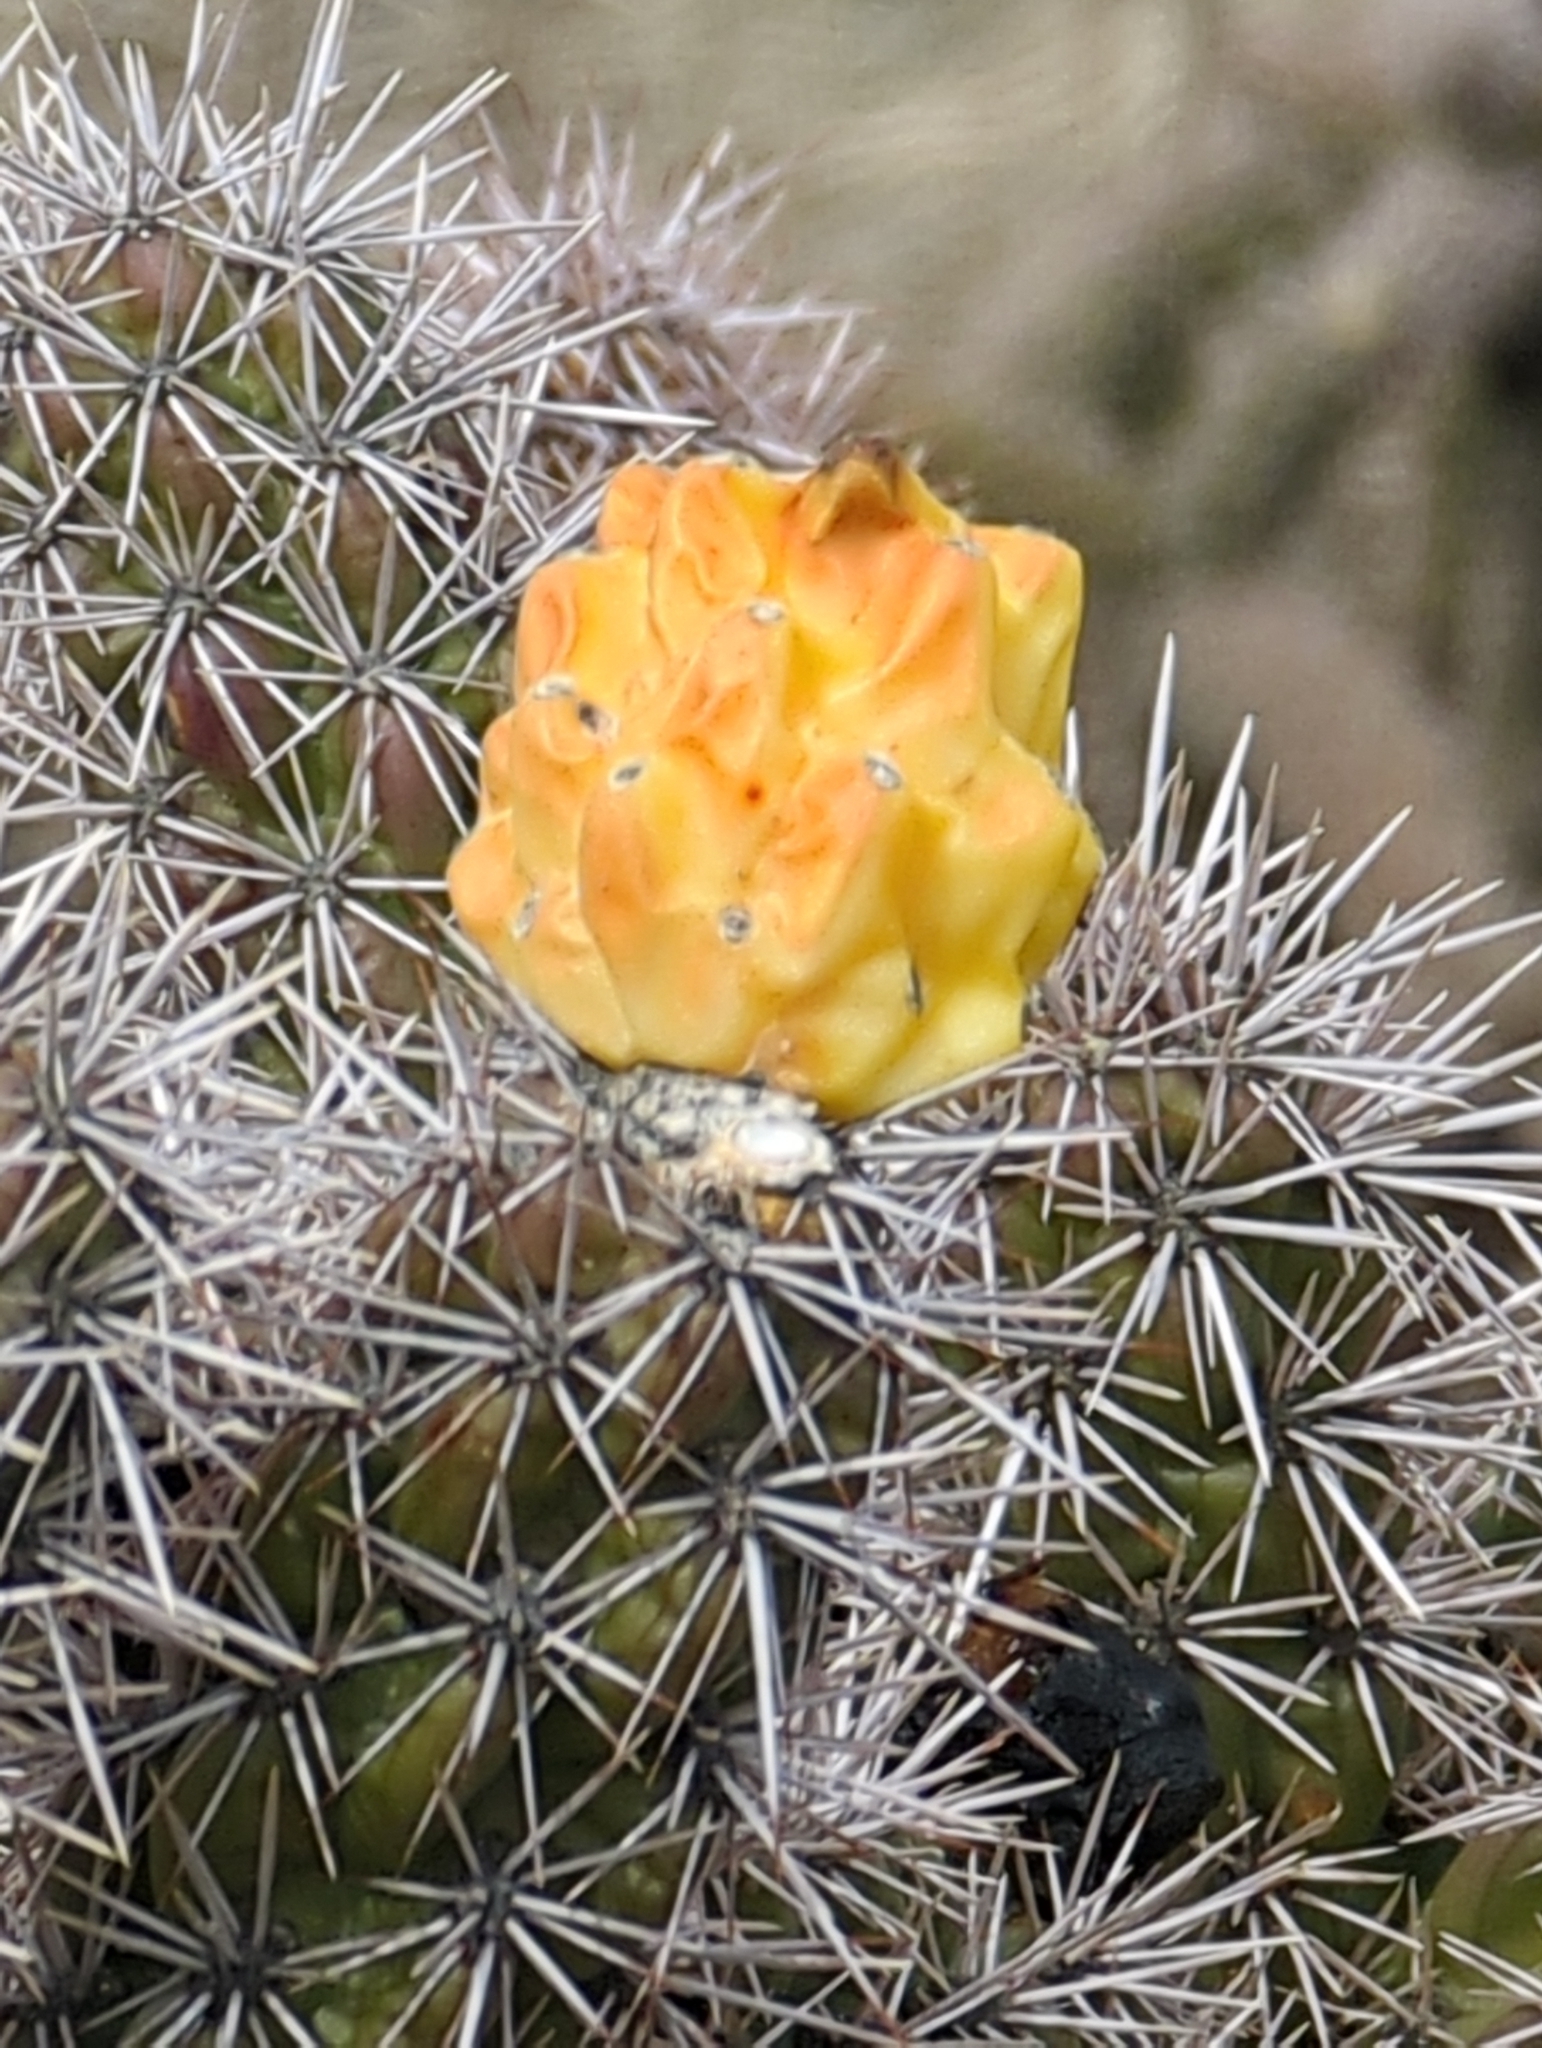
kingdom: Plantae
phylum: Tracheophyta
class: Magnoliopsida
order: Caryophyllales
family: Cactaceae
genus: Cylindropuntia
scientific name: Cylindropuntia imbricata
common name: Candelabrum cactus
